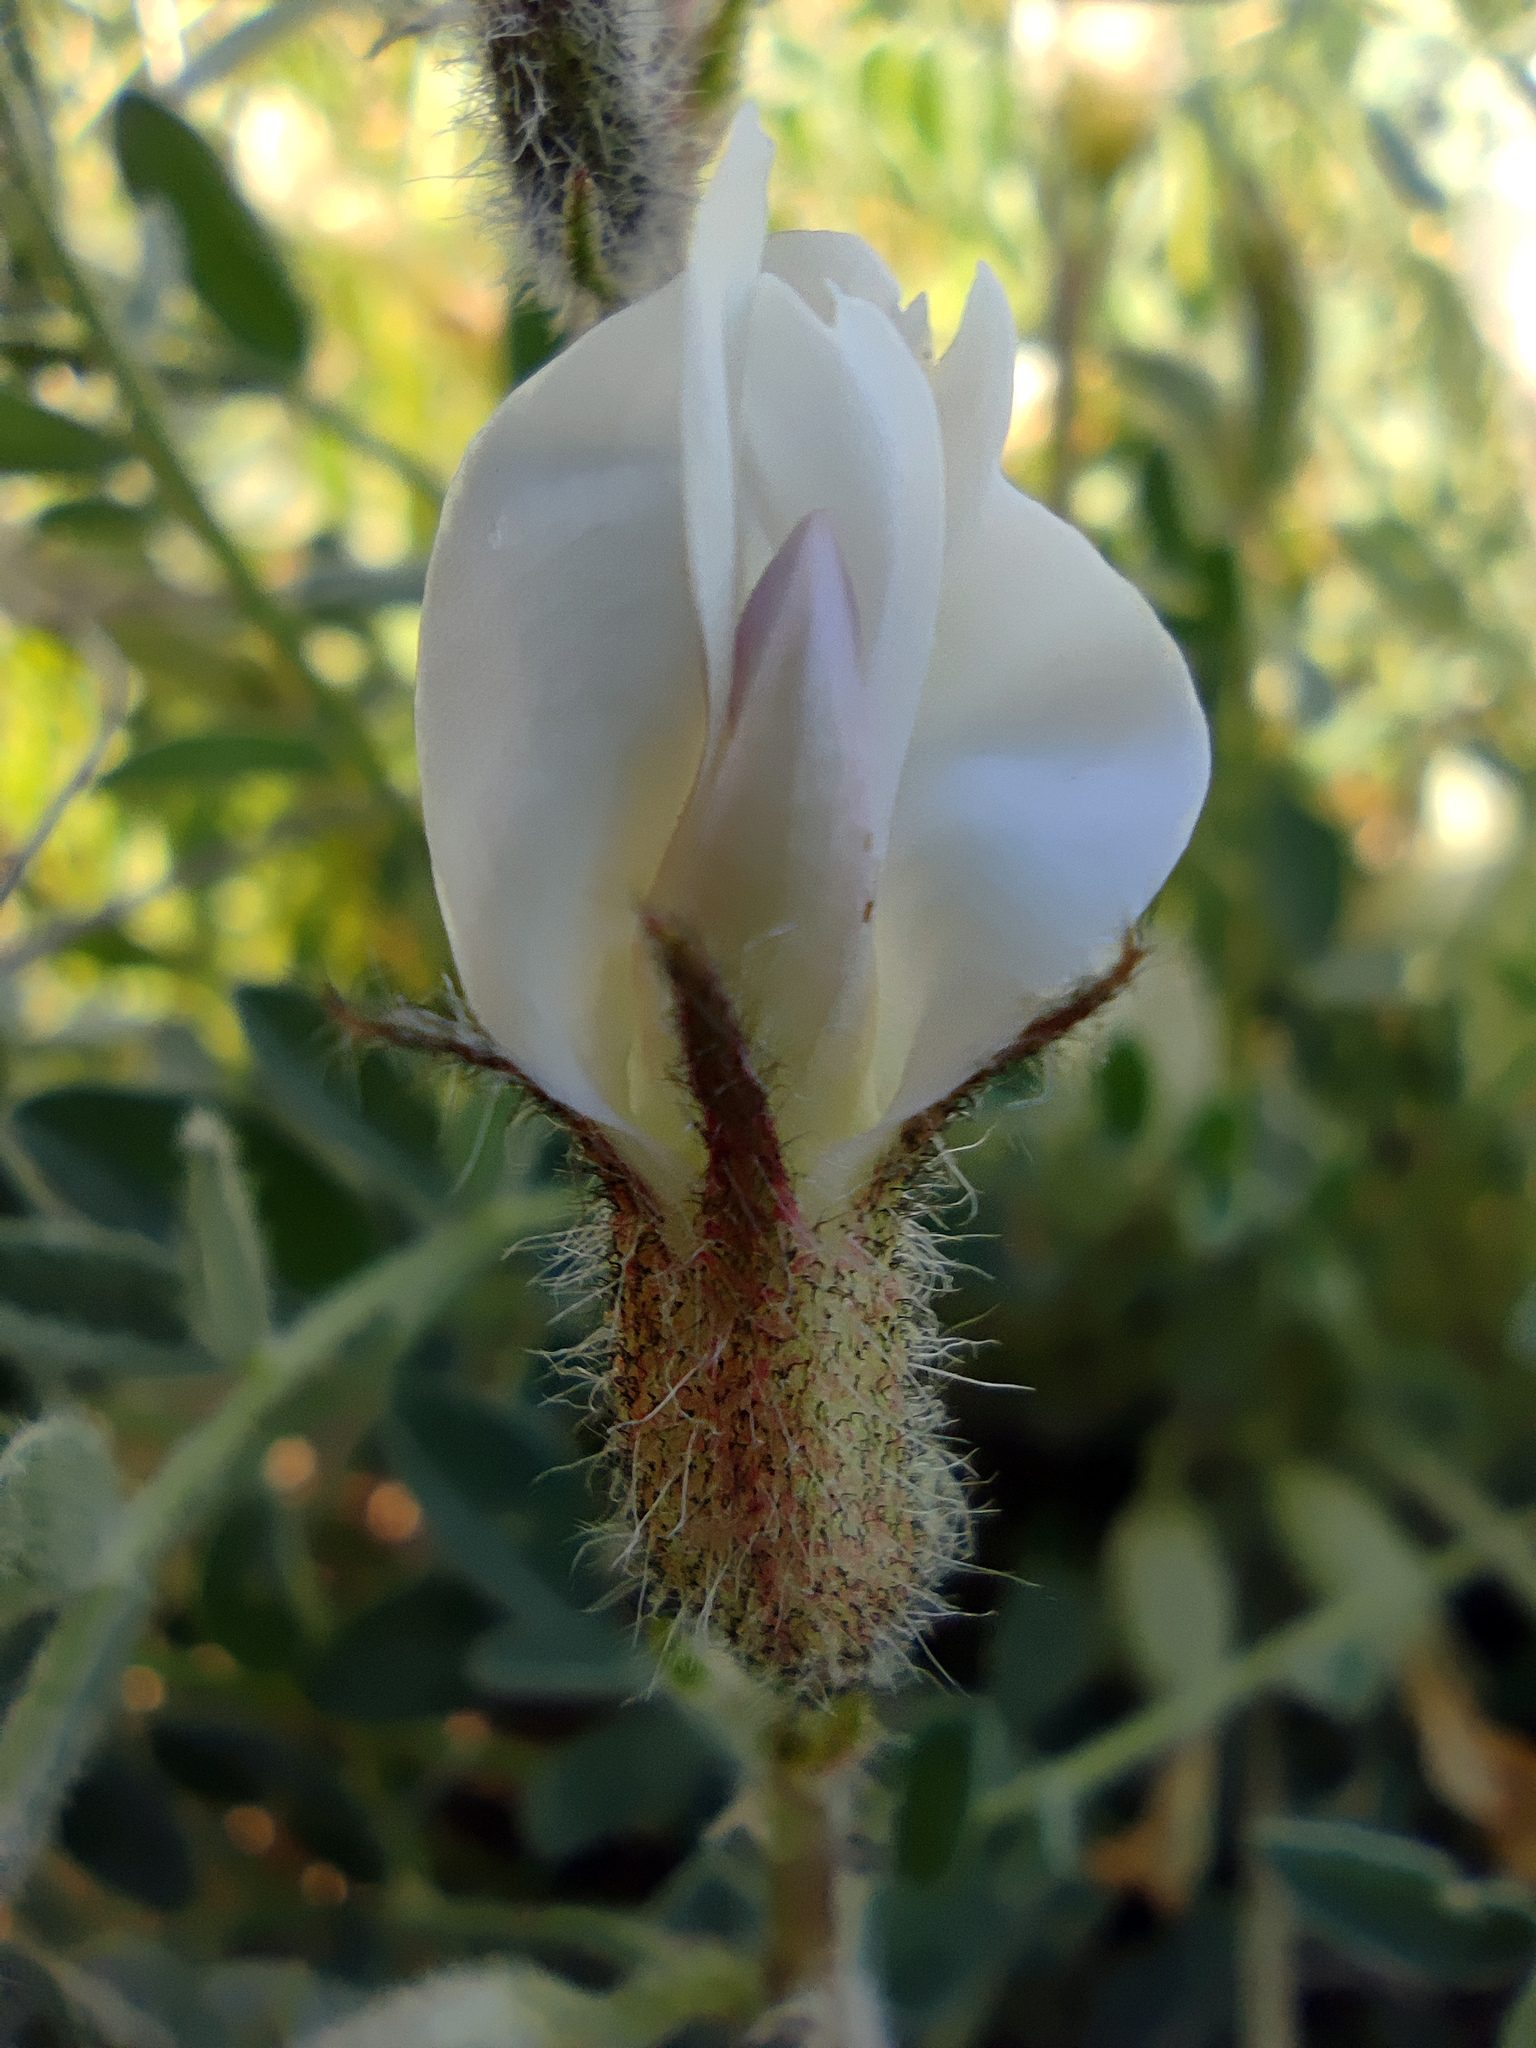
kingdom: Plantae
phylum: Tracheophyta
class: Magnoliopsida
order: Fabales
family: Fabaceae
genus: Astragalus
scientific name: Astragalus rupifragus
